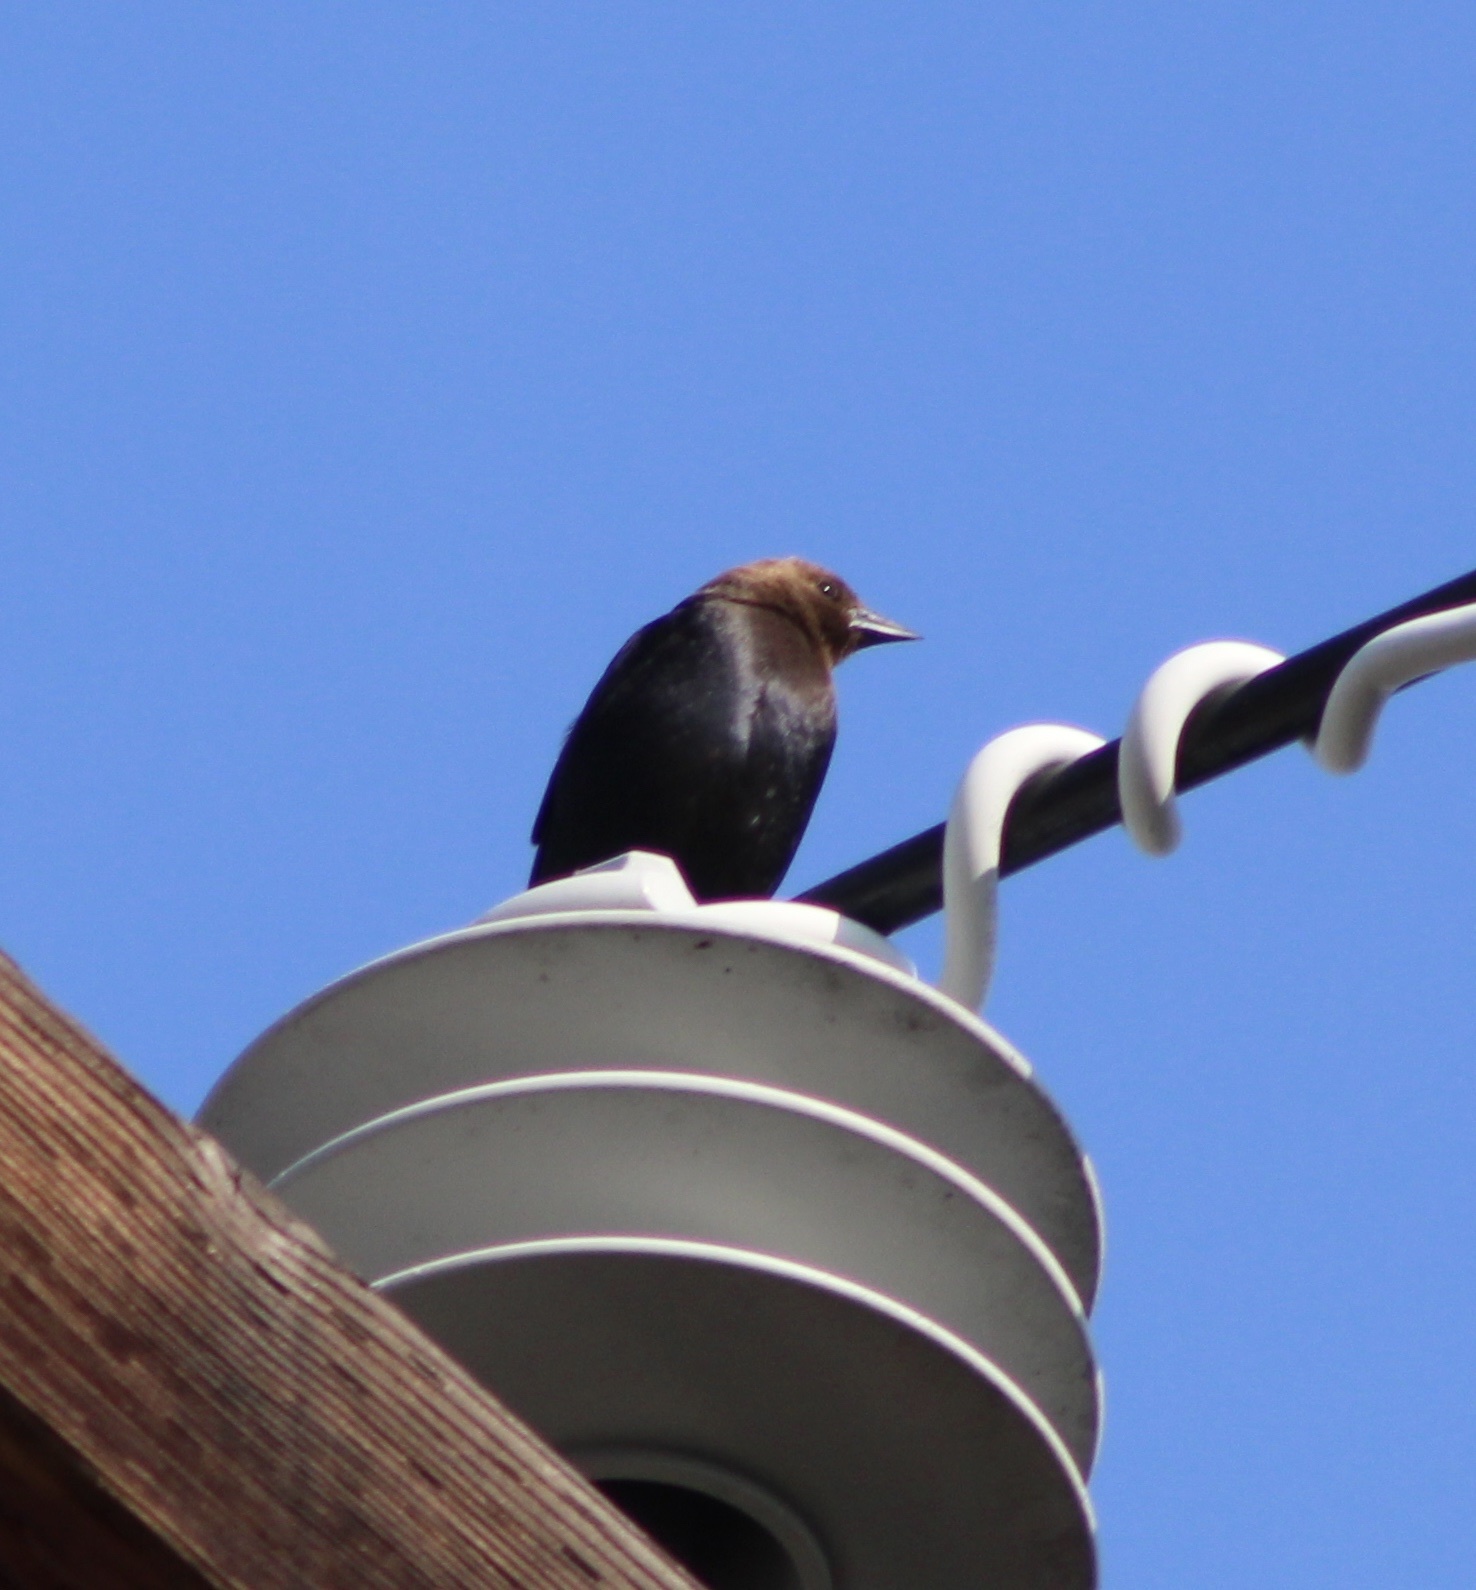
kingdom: Animalia
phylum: Chordata
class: Aves
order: Passeriformes
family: Icteridae
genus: Molothrus
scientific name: Molothrus ater
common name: Brown-headed cowbird
